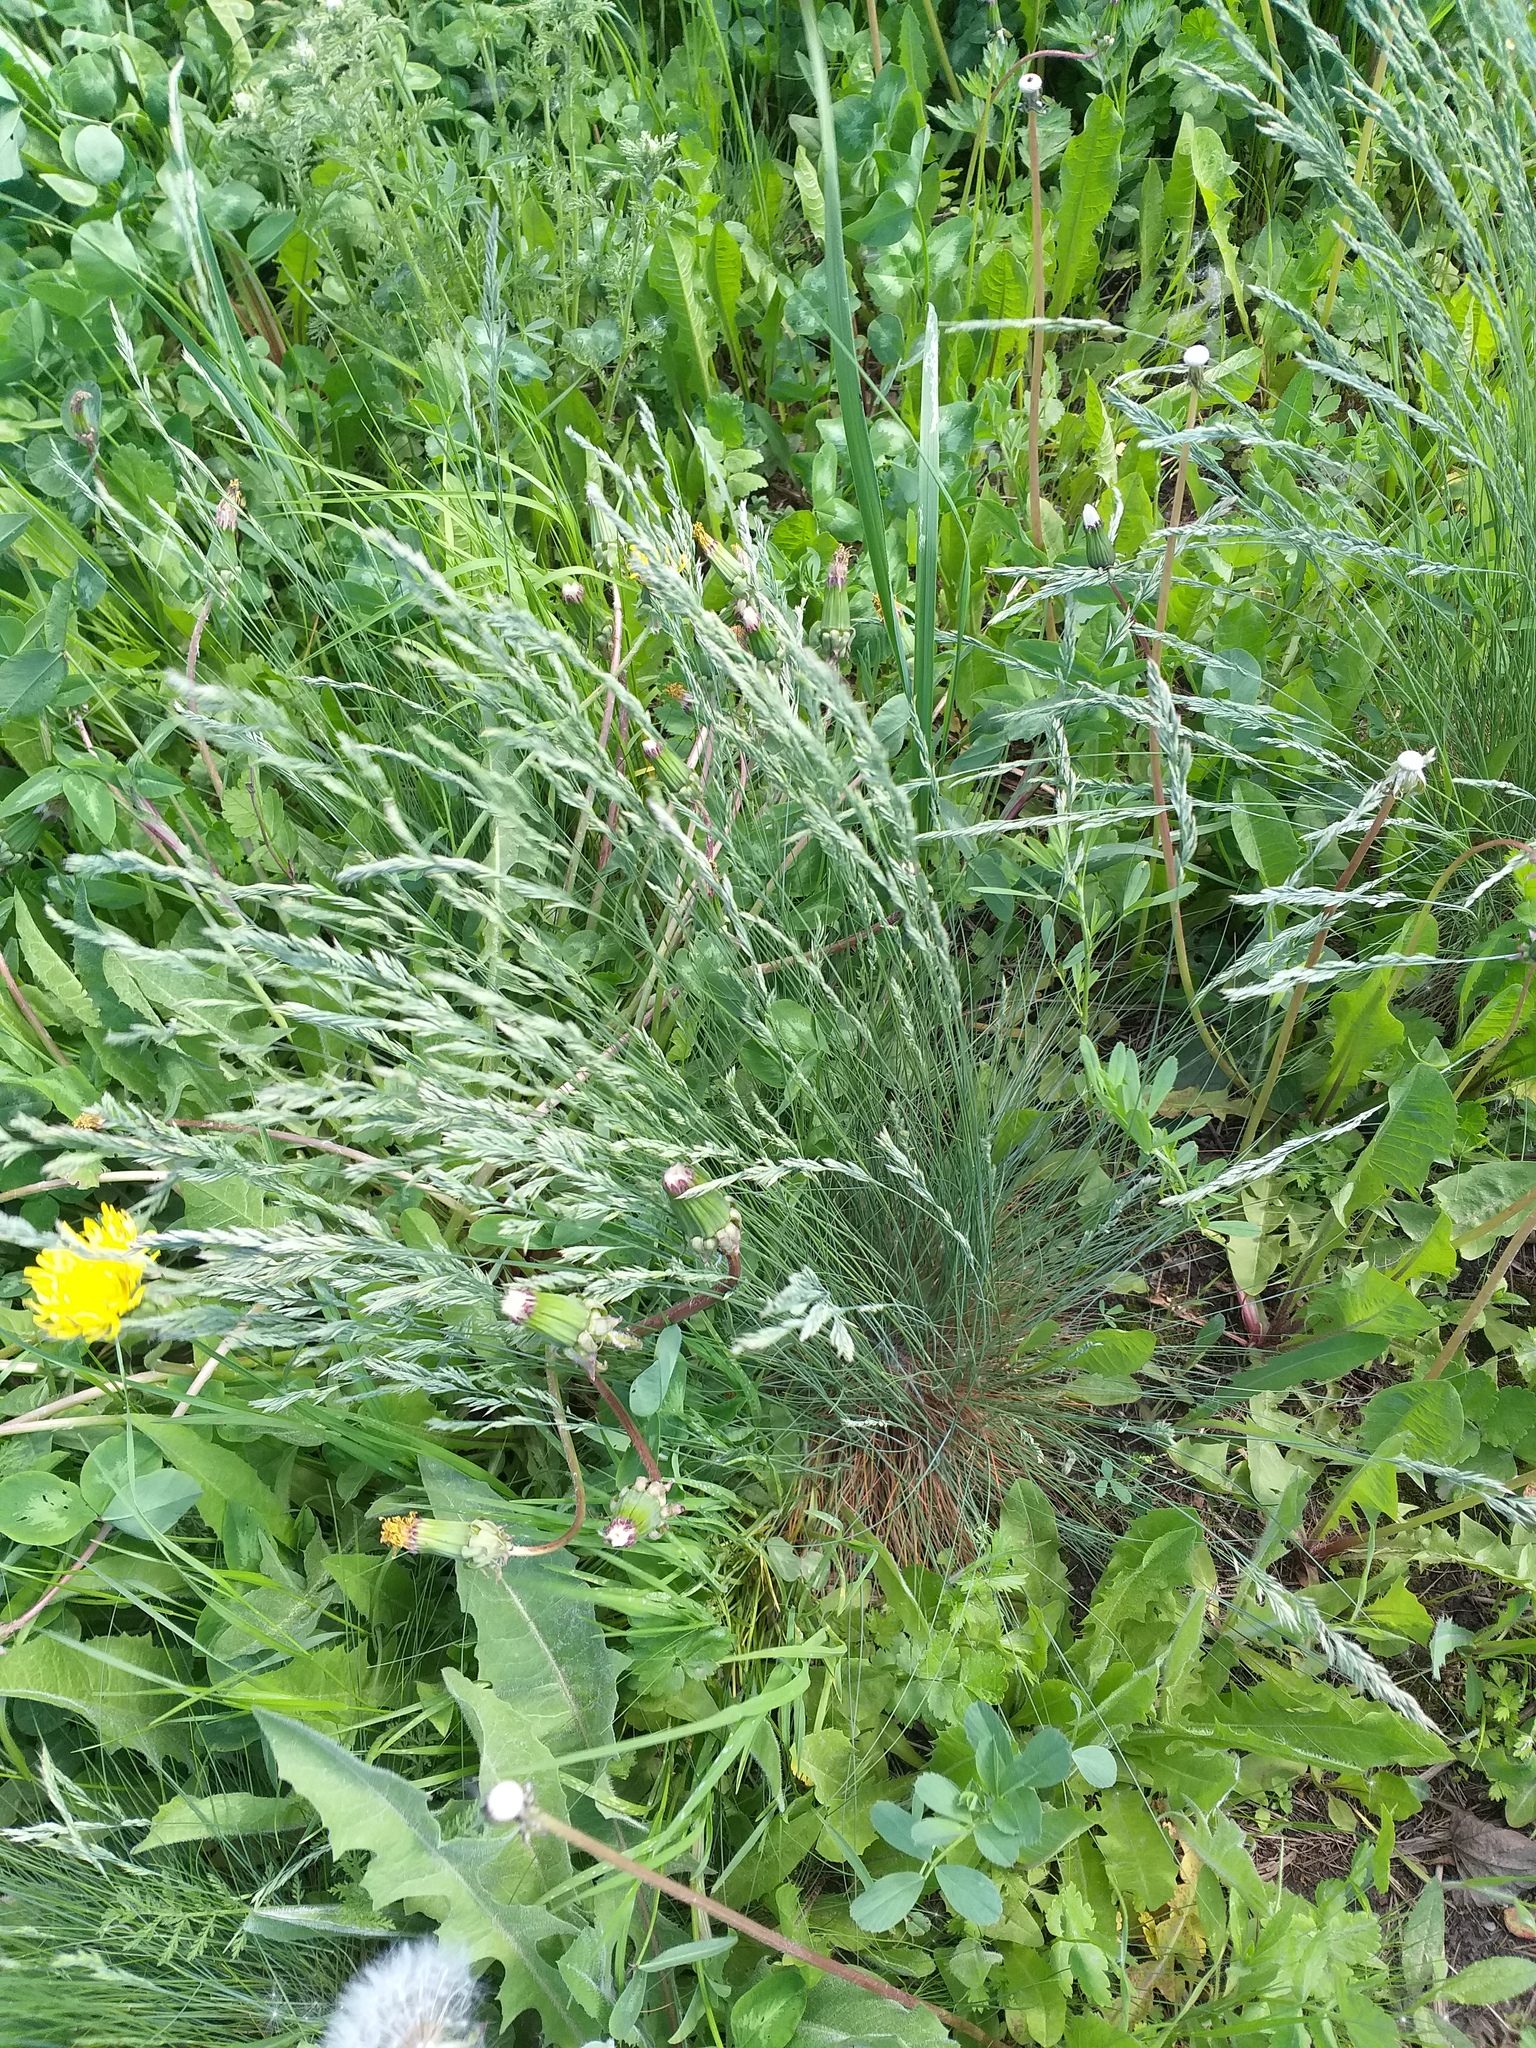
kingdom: Plantae
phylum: Tracheophyta
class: Liliopsida
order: Poales
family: Poaceae
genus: Festuca
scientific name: Festuca valesiaca
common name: Volga fescue
